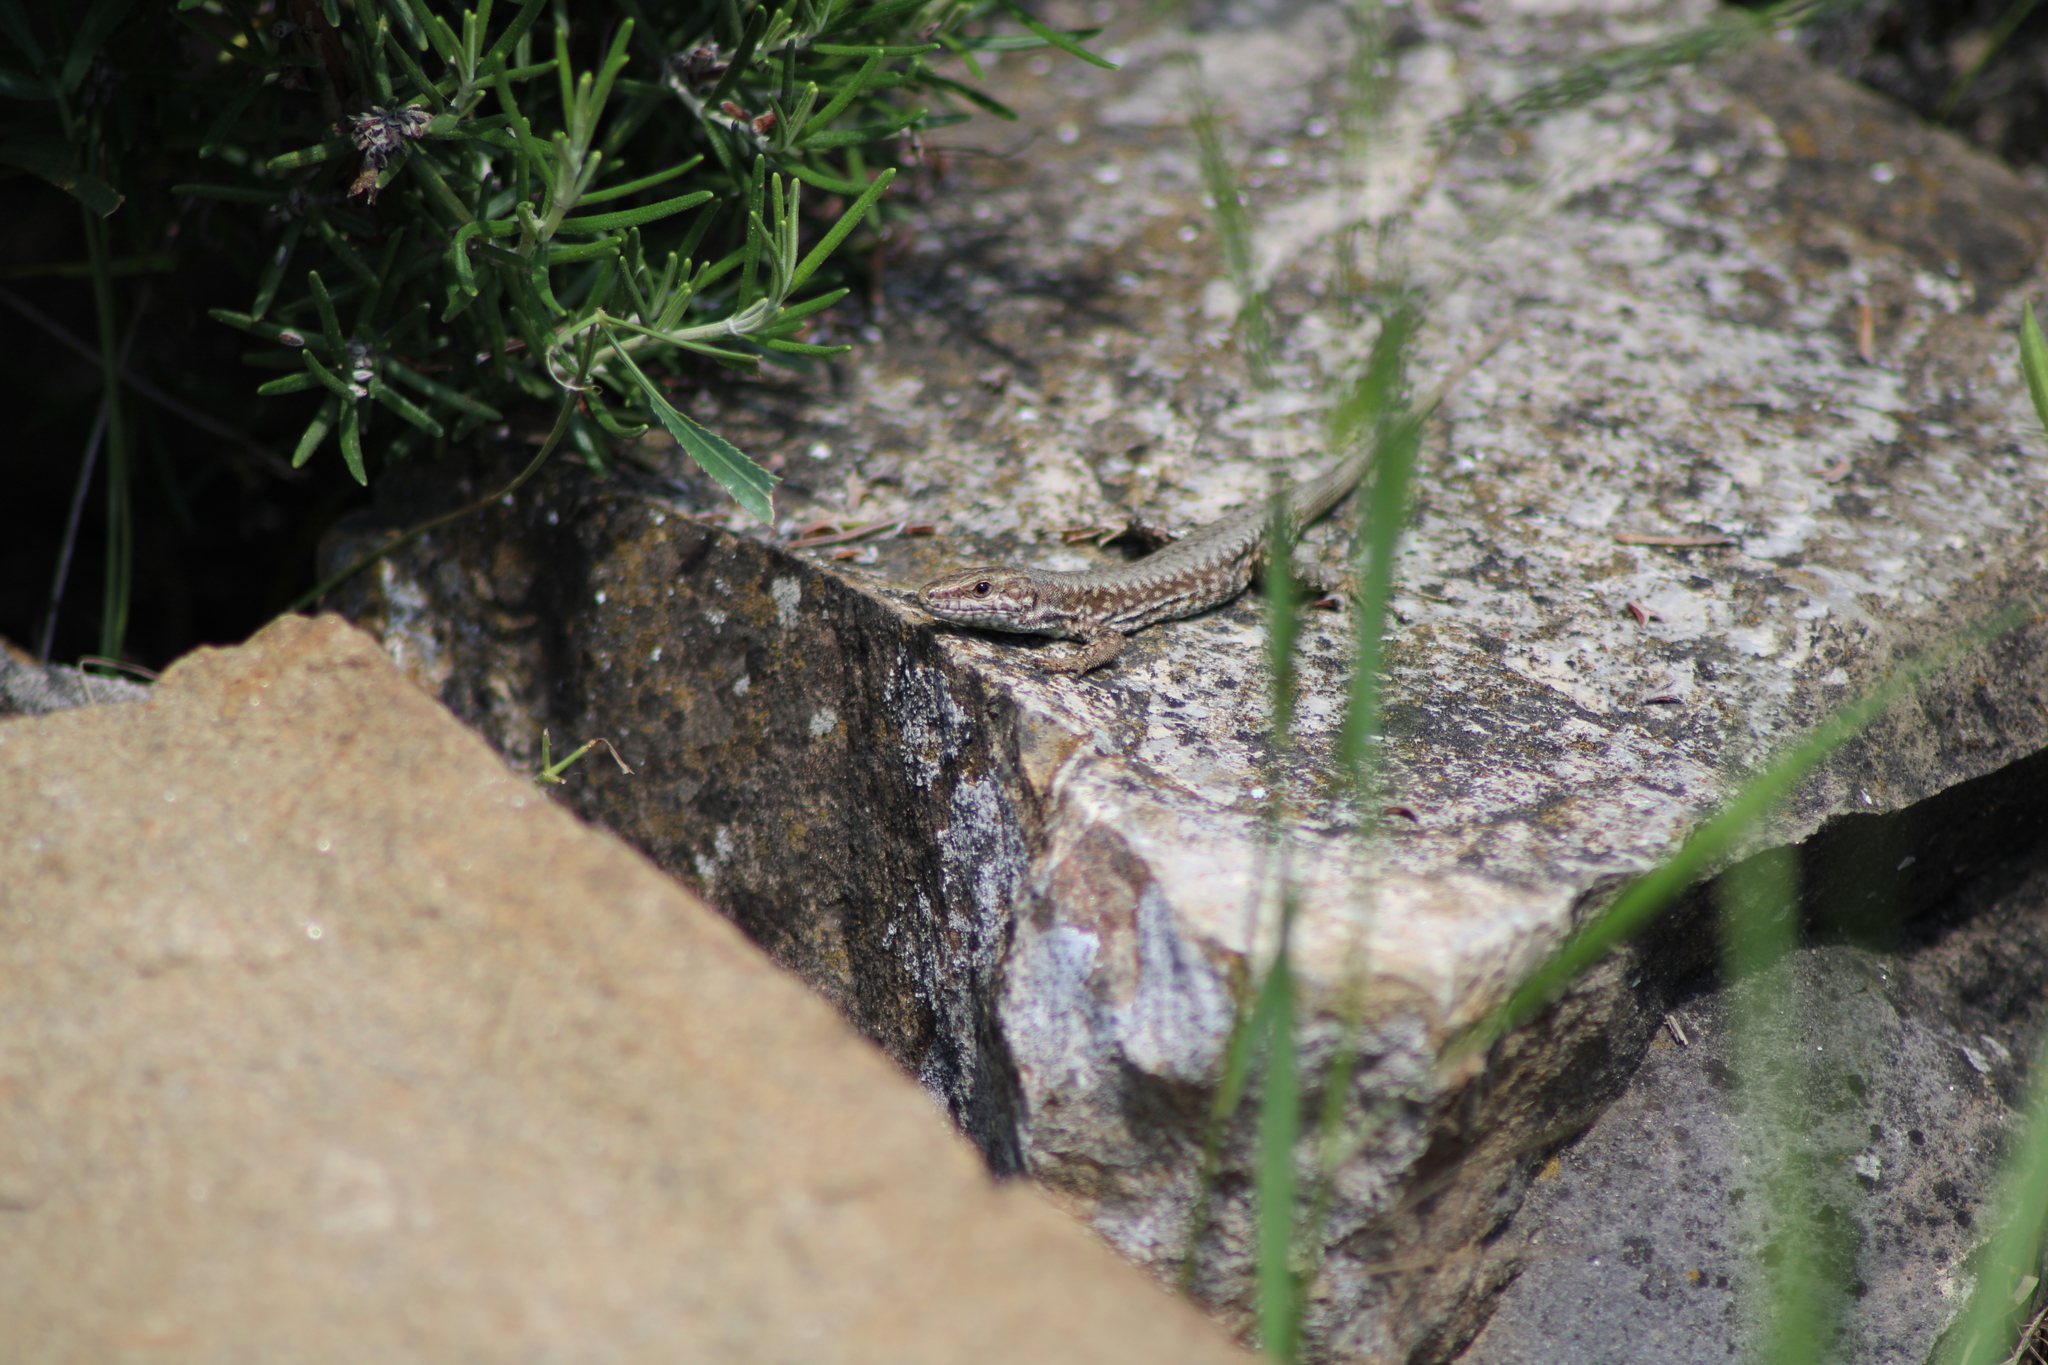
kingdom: Animalia
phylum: Chordata
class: Squamata
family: Lacertidae
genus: Podarcis
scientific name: Podarcis muralis
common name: Common wall lizard
